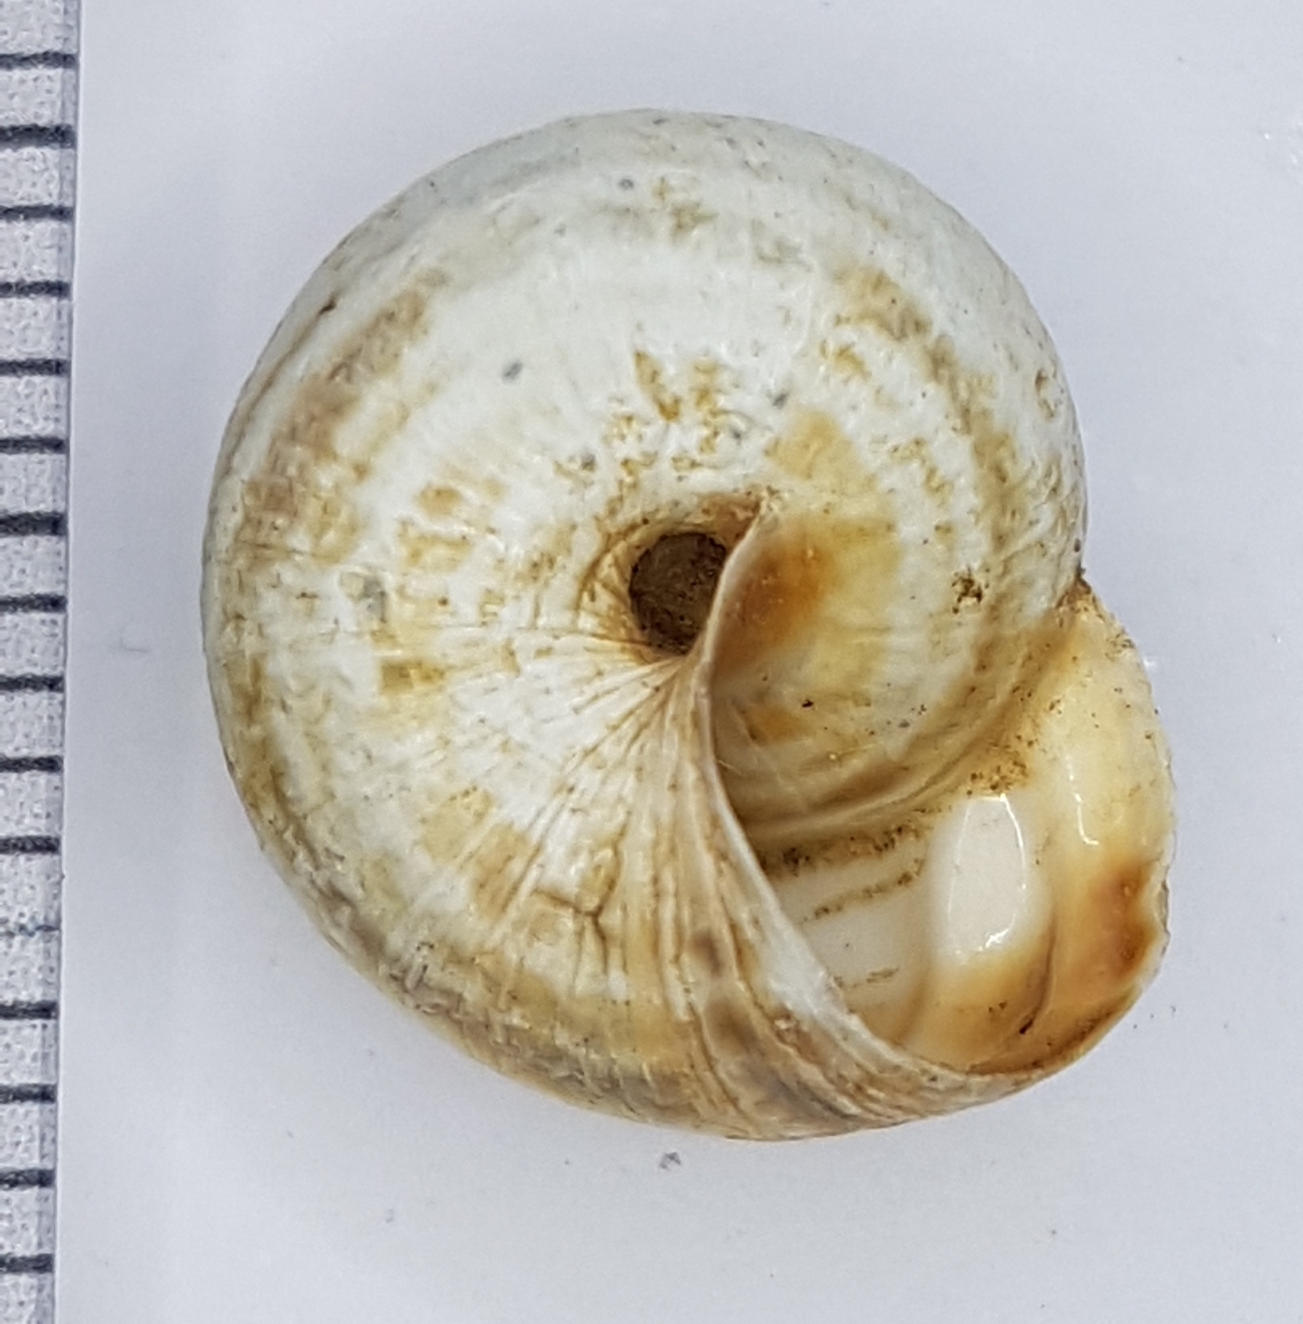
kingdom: Animalia
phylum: Mollusca
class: Gastropoda
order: Stylommatophora
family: Geomitridae
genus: Cernuella
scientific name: Cernuella virgata
